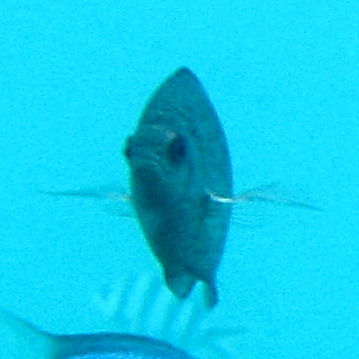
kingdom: Animalia
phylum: Chordata
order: Perciformes
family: Pomacentridae
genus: Acanthochromis
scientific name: Acanthochromis polyacanthus
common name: Spiny chromis
